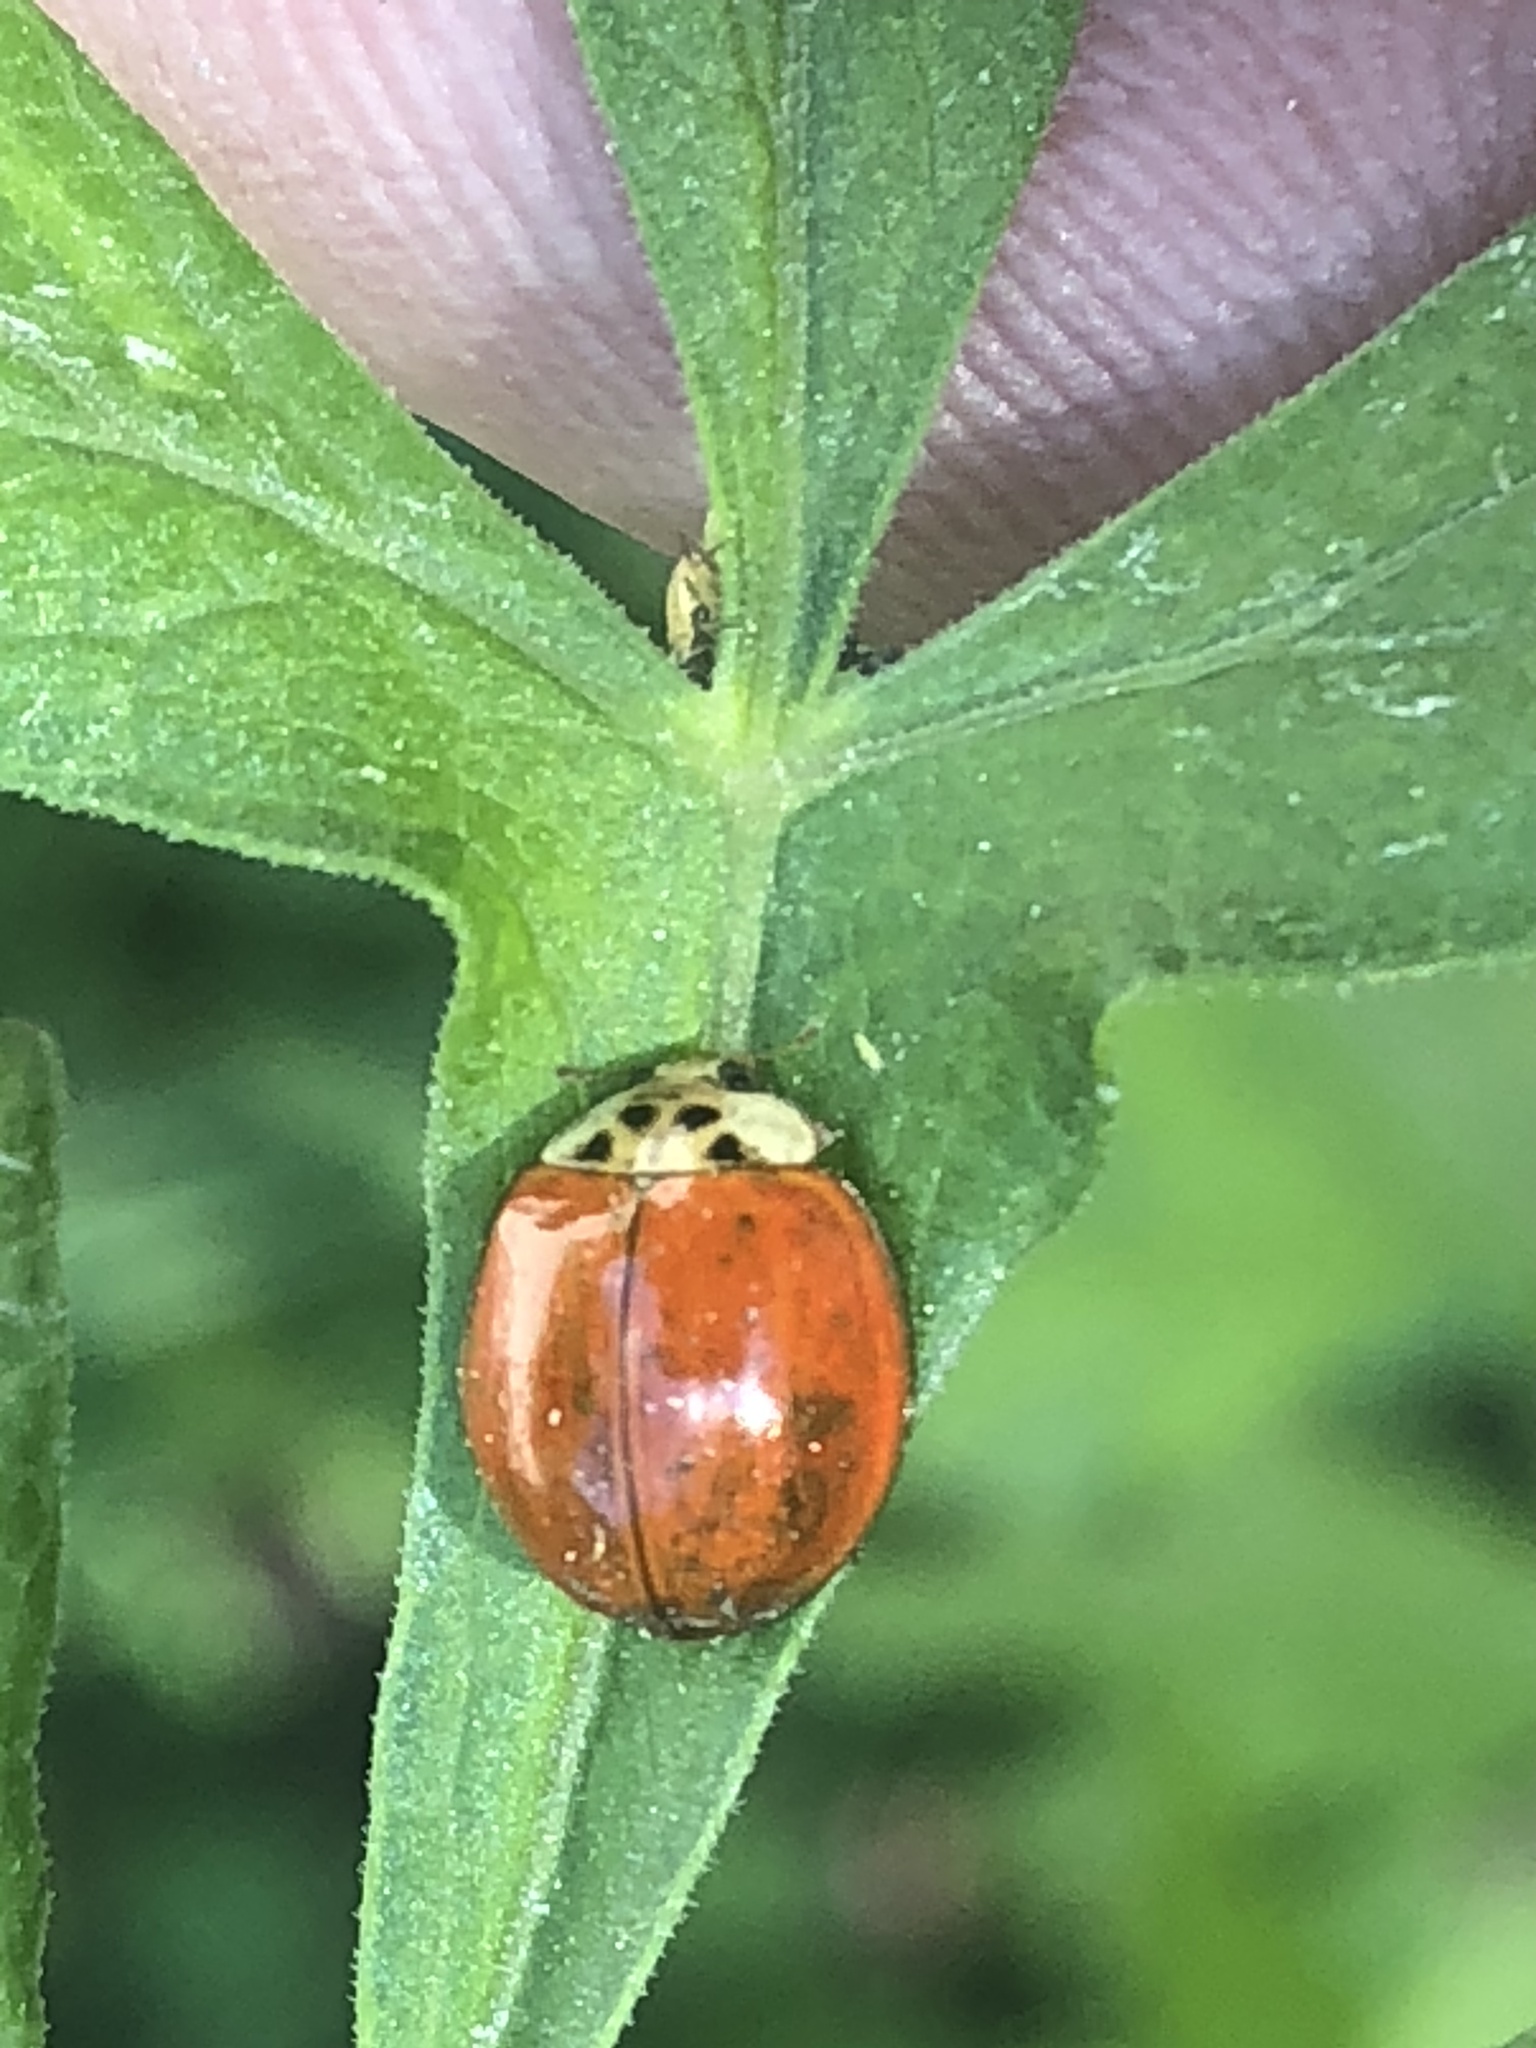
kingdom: Animalia
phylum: Arthropoda
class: Insecta
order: Coleoptera
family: Coccinellidae
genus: Harmonia
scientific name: Harmonia axyridis
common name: Harlequin ladybird
